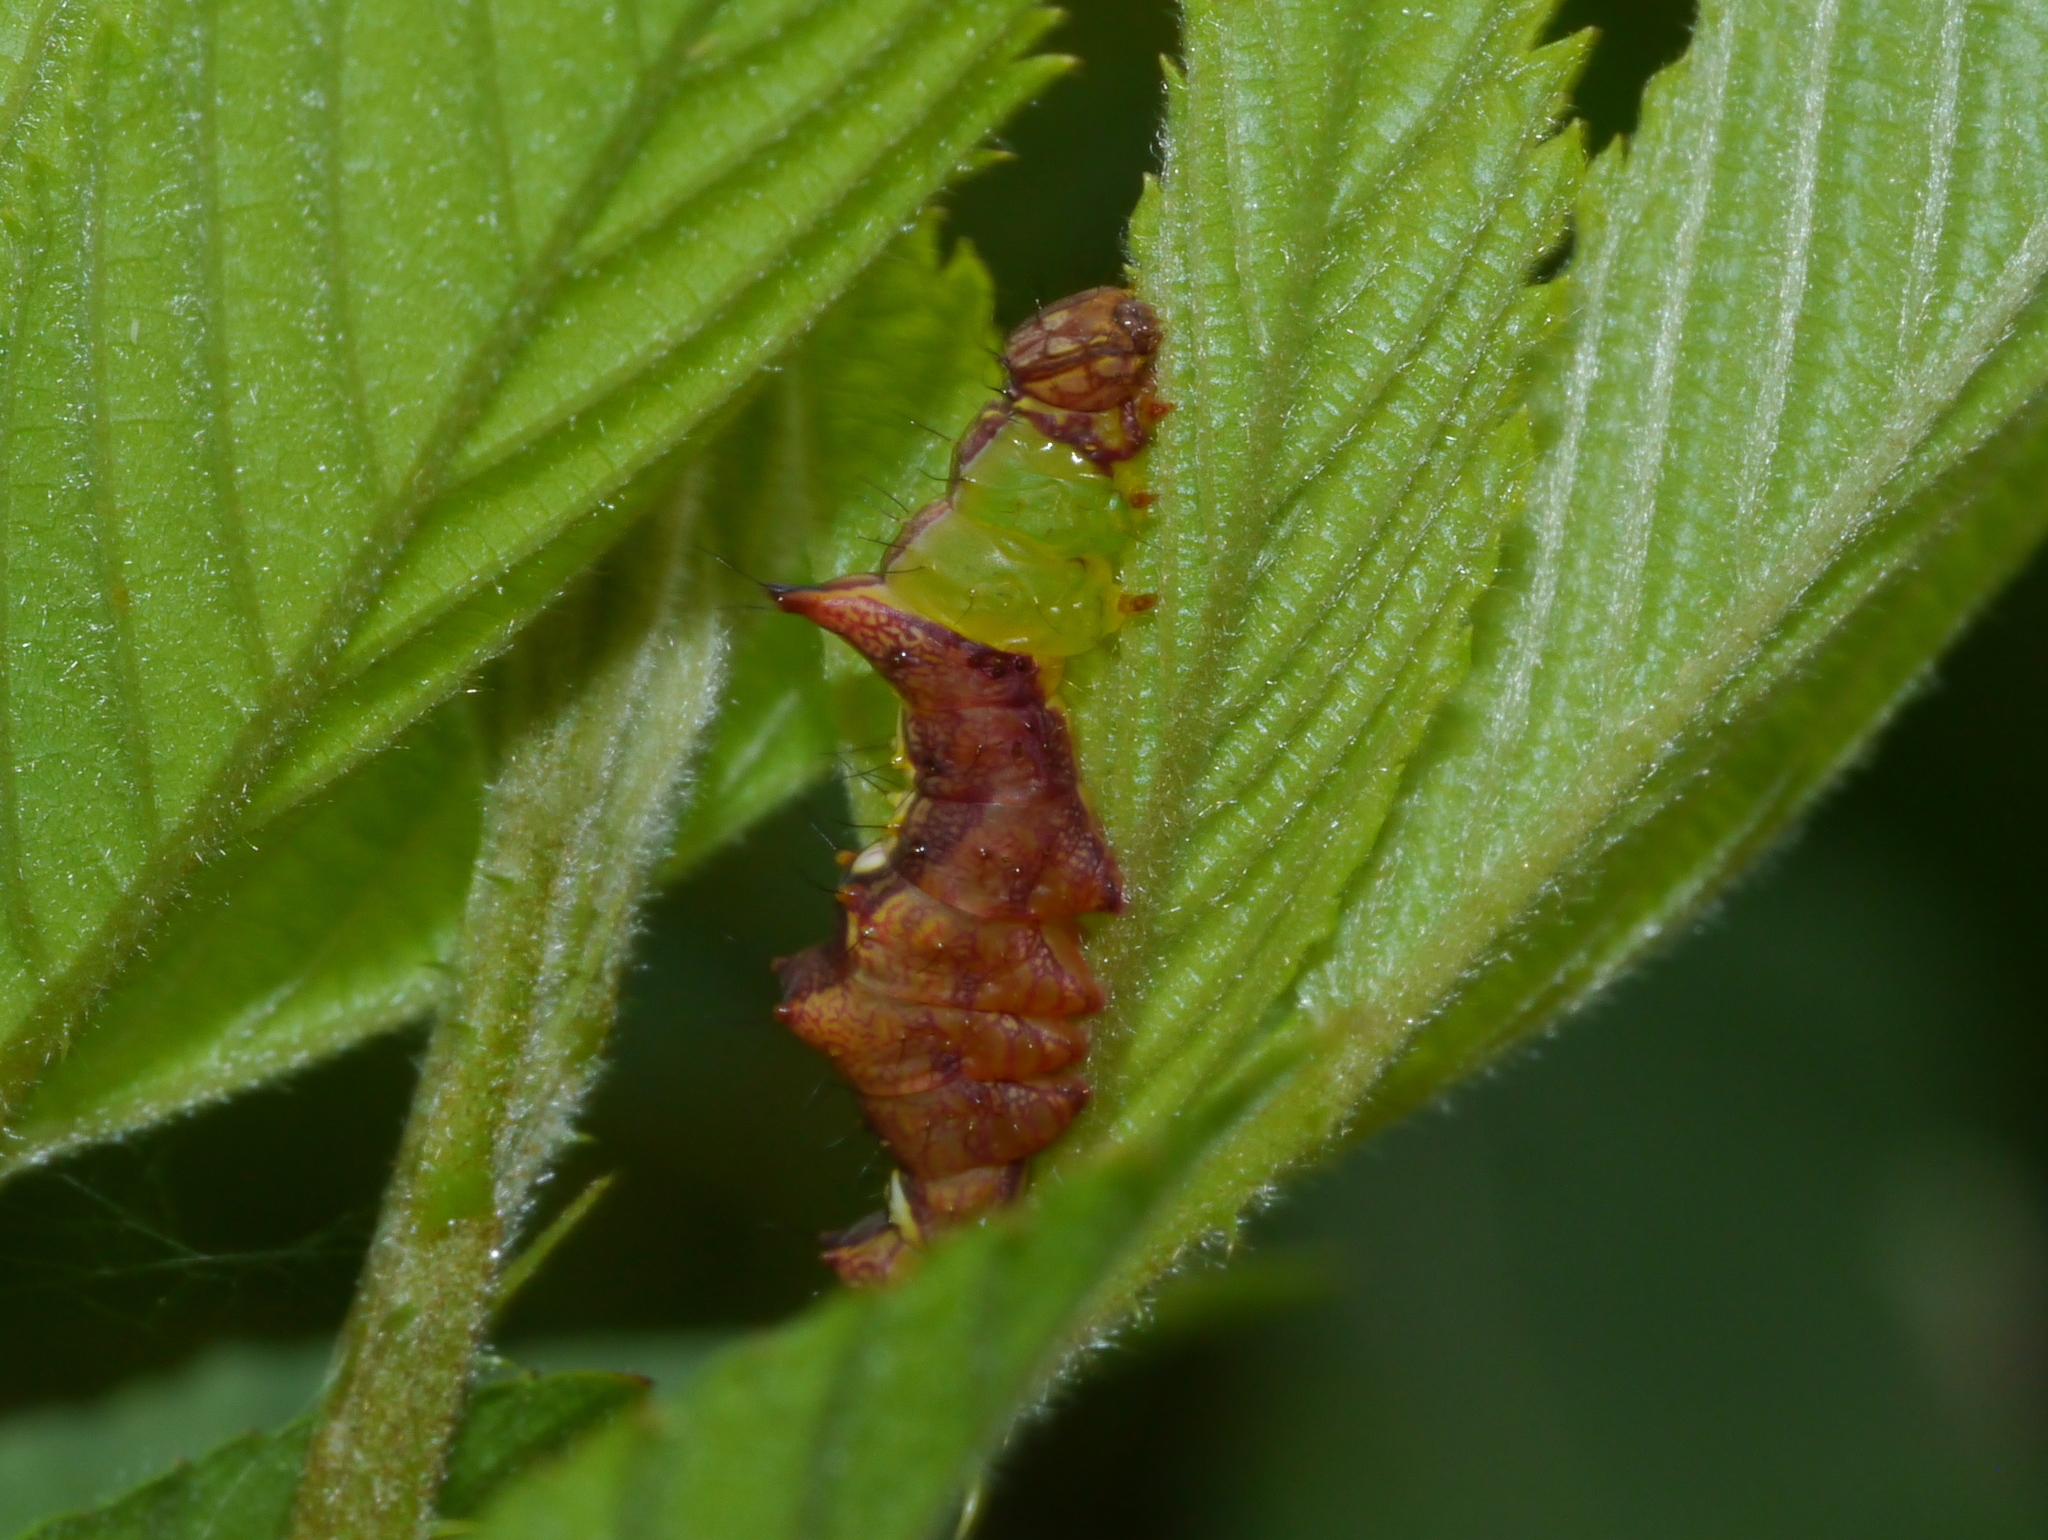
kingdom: Animalia
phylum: Arthropoda
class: Insecta
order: Lepidoptera
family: Notodontidae
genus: Schizura
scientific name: Schizura ipomaeae
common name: Morning-glory prominent
